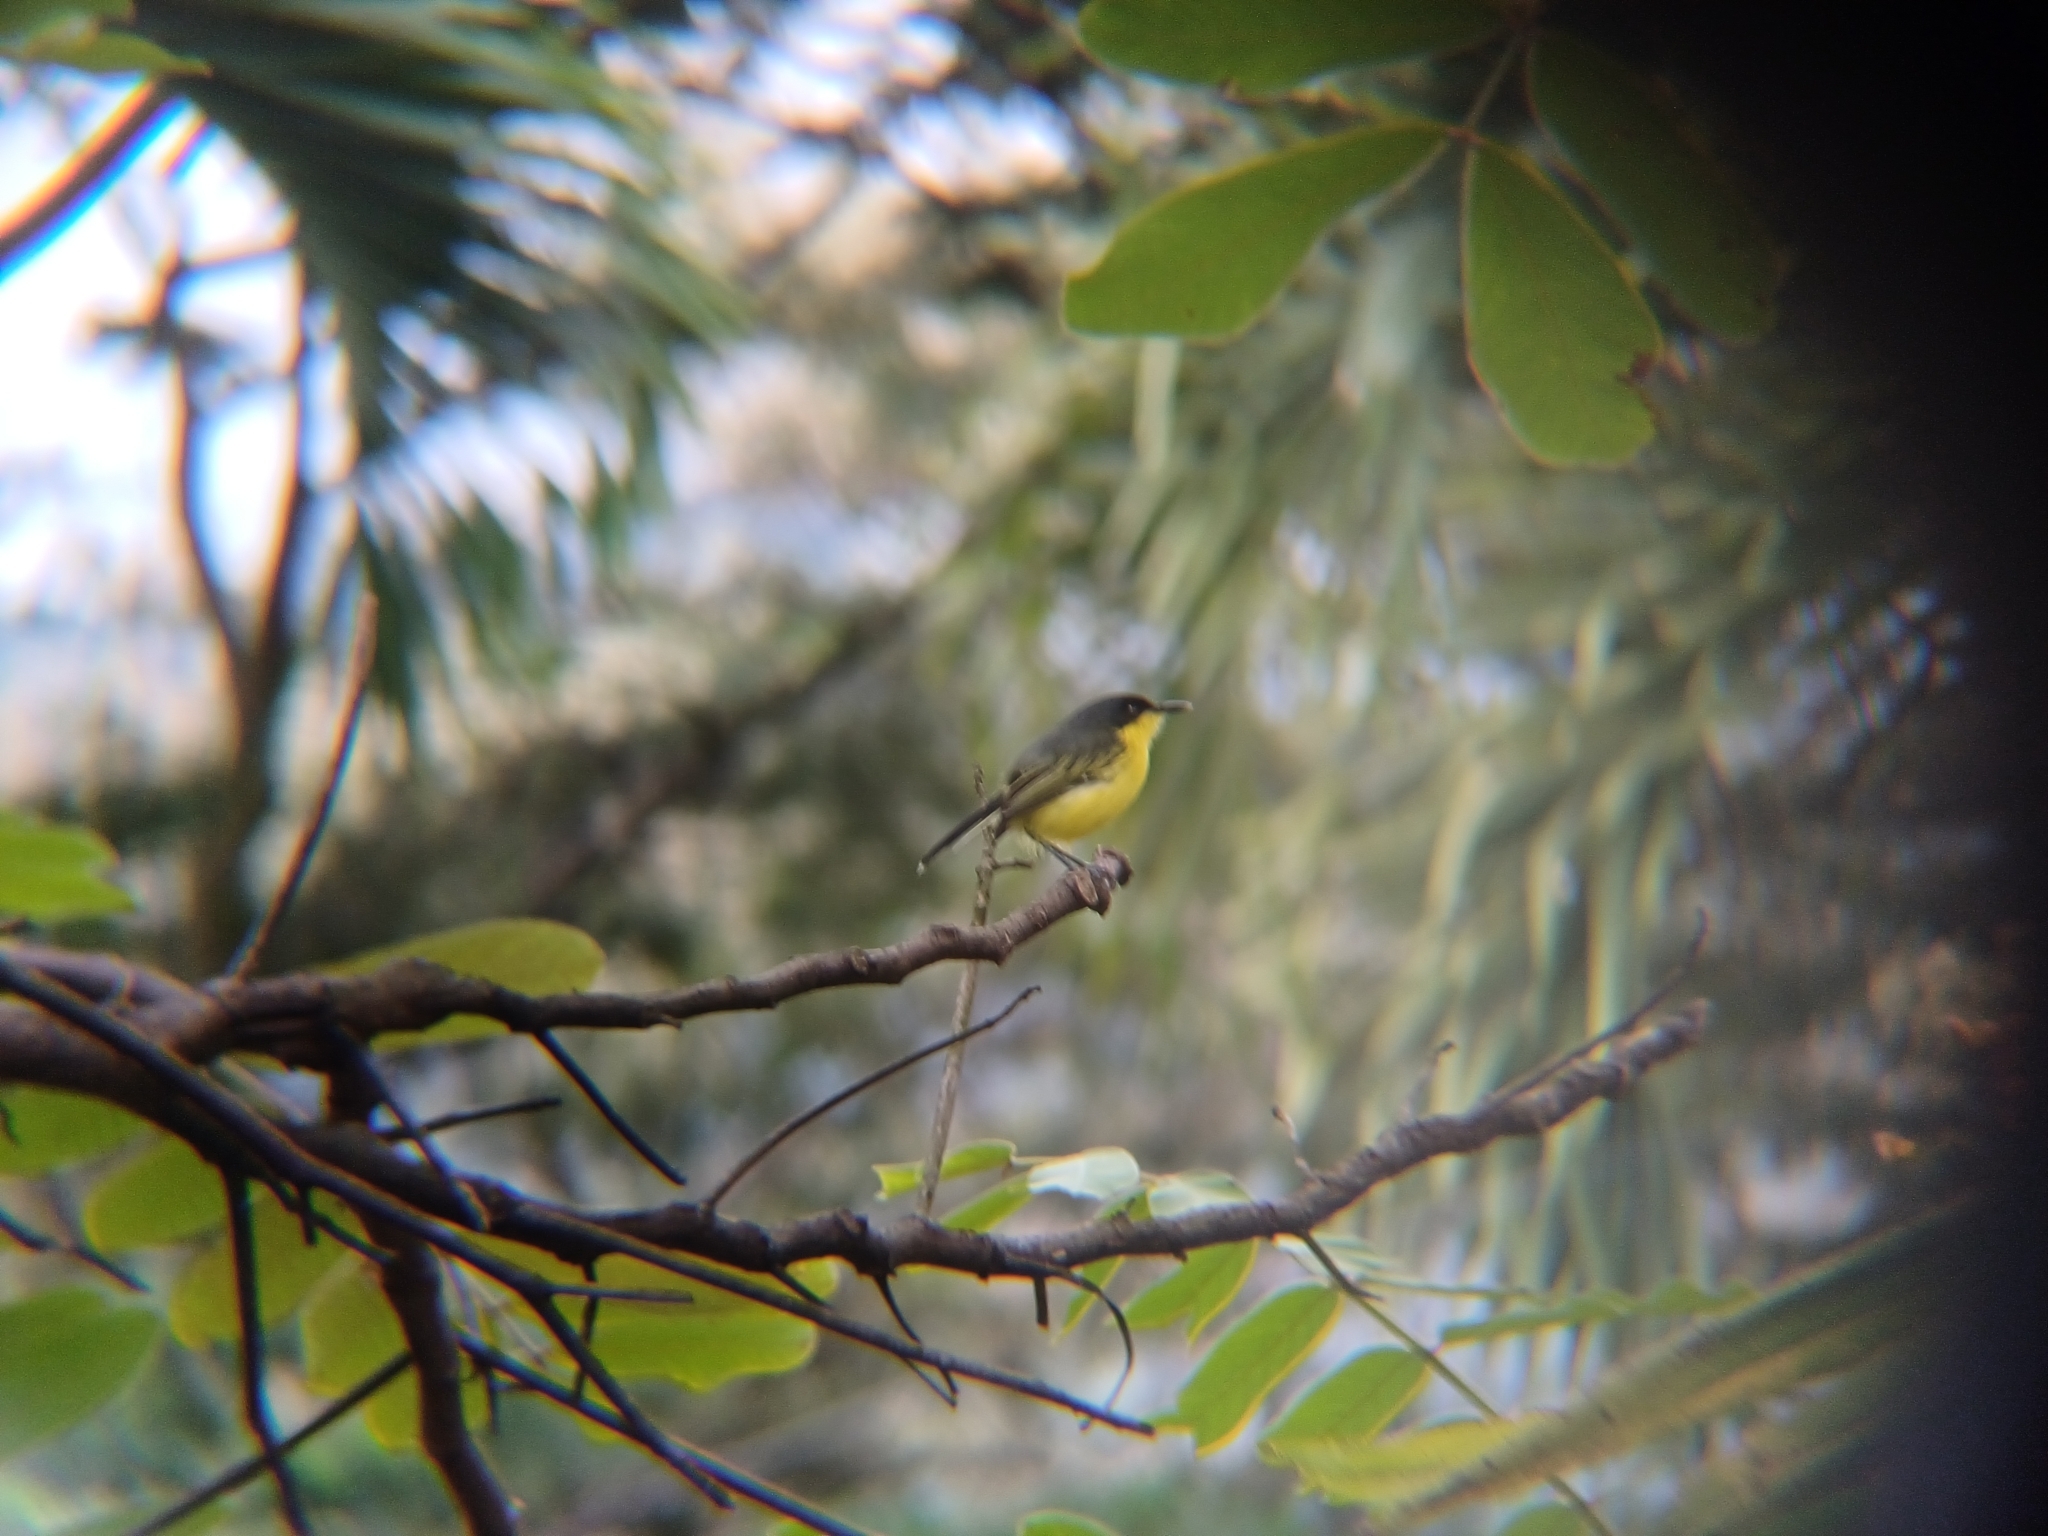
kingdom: Animalia
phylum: Chordata
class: Aves
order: Passeriformes
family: Tyrannidae
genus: Todirostrum
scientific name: Todirostrum cinereum
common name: Common tody-flycatcher
